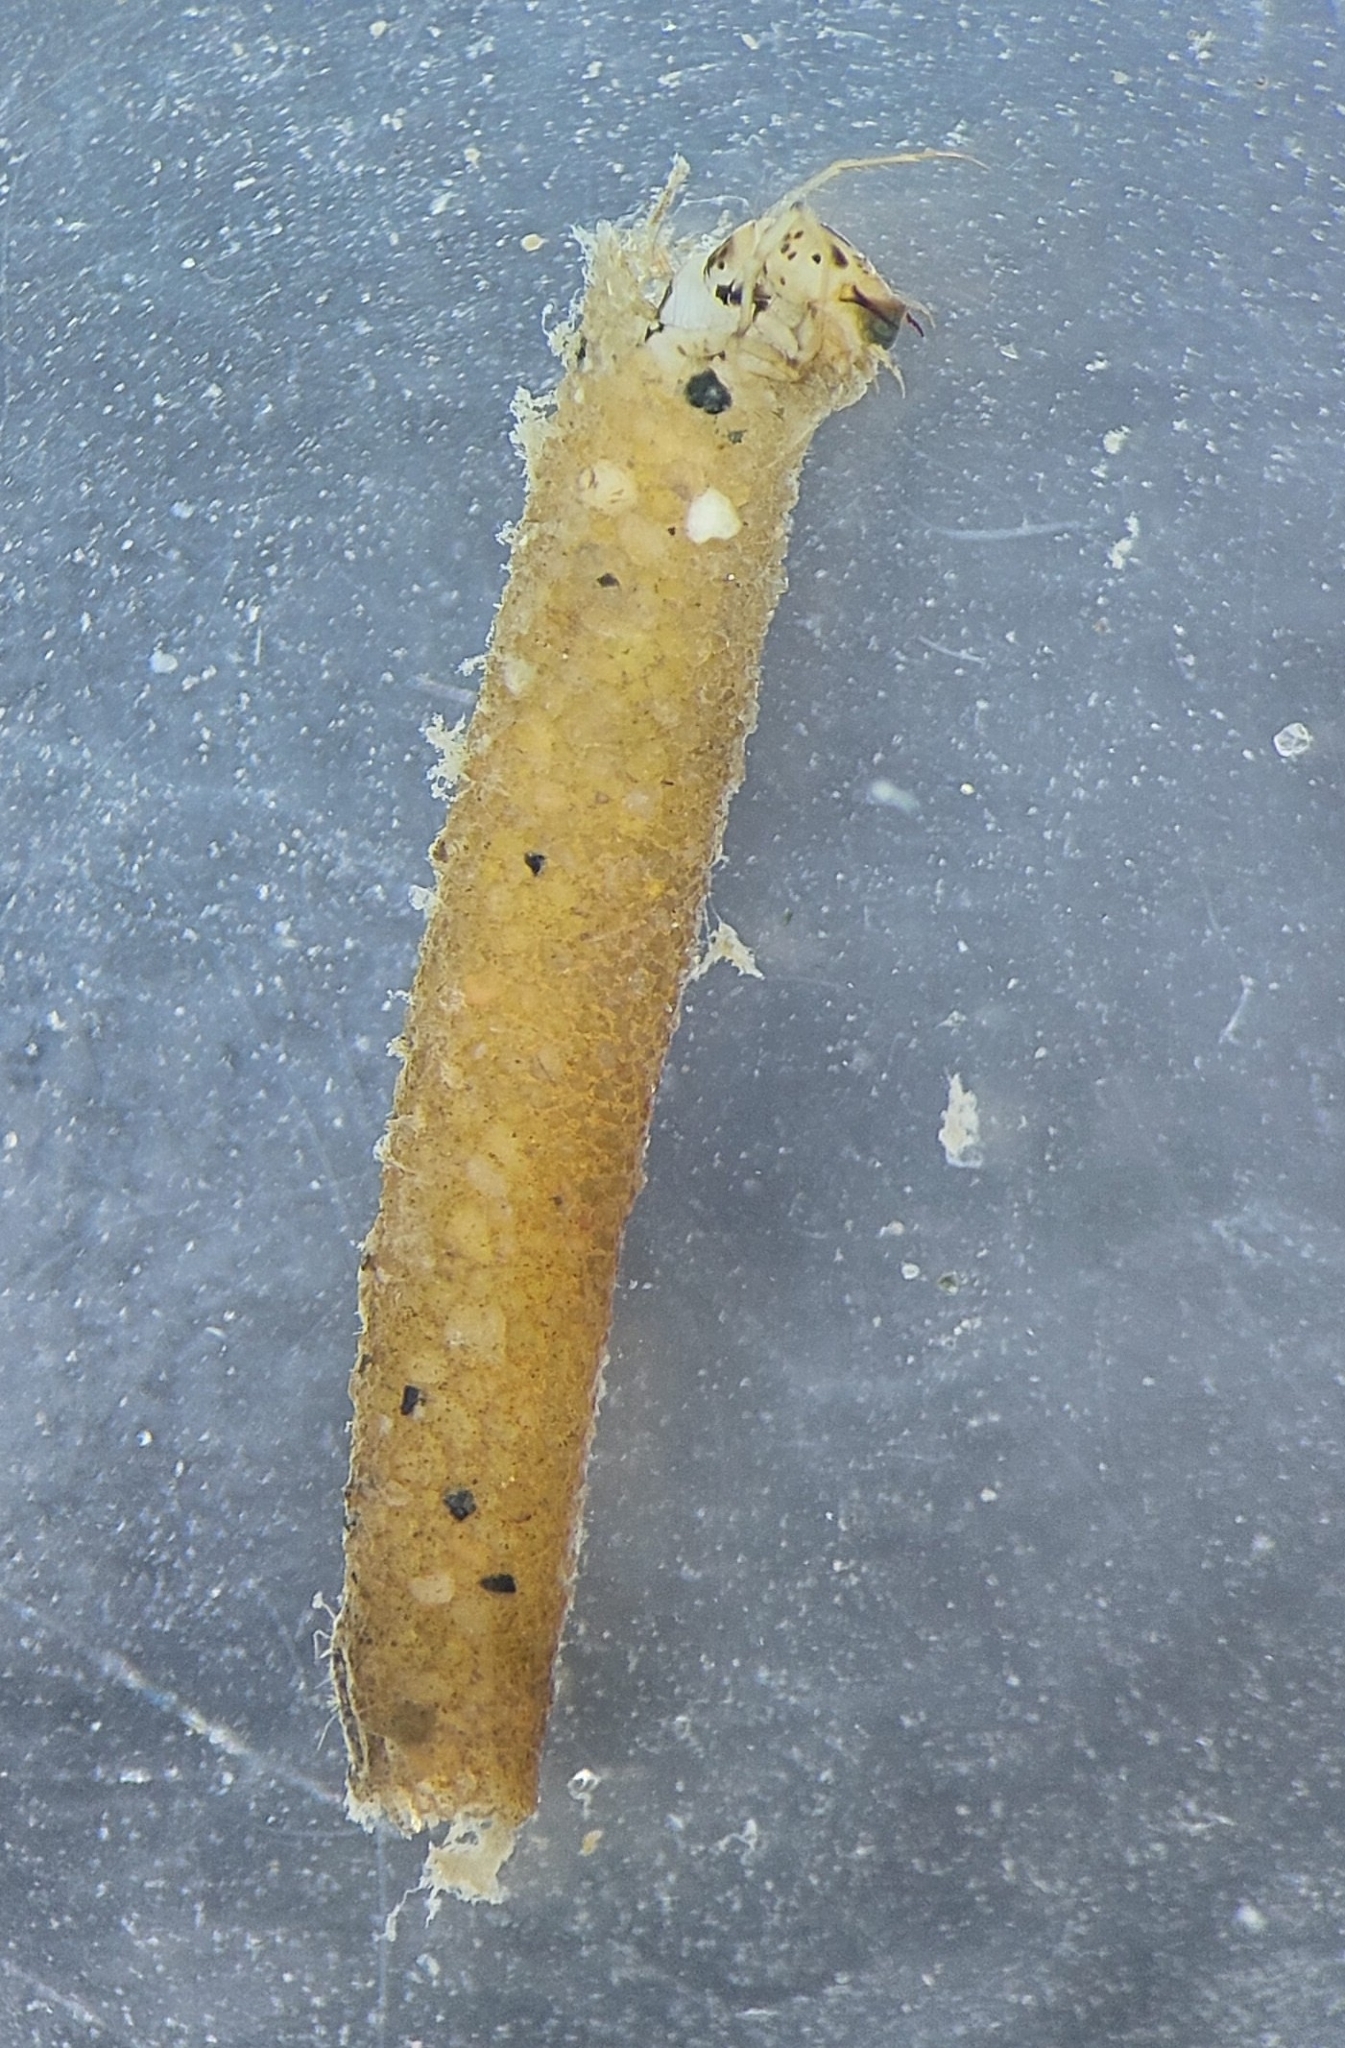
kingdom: Animalia
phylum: Arthropoda
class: Insecta
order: Trichoptera
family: Leptoceridae
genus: Oecetis
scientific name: Oecetis lacustris
